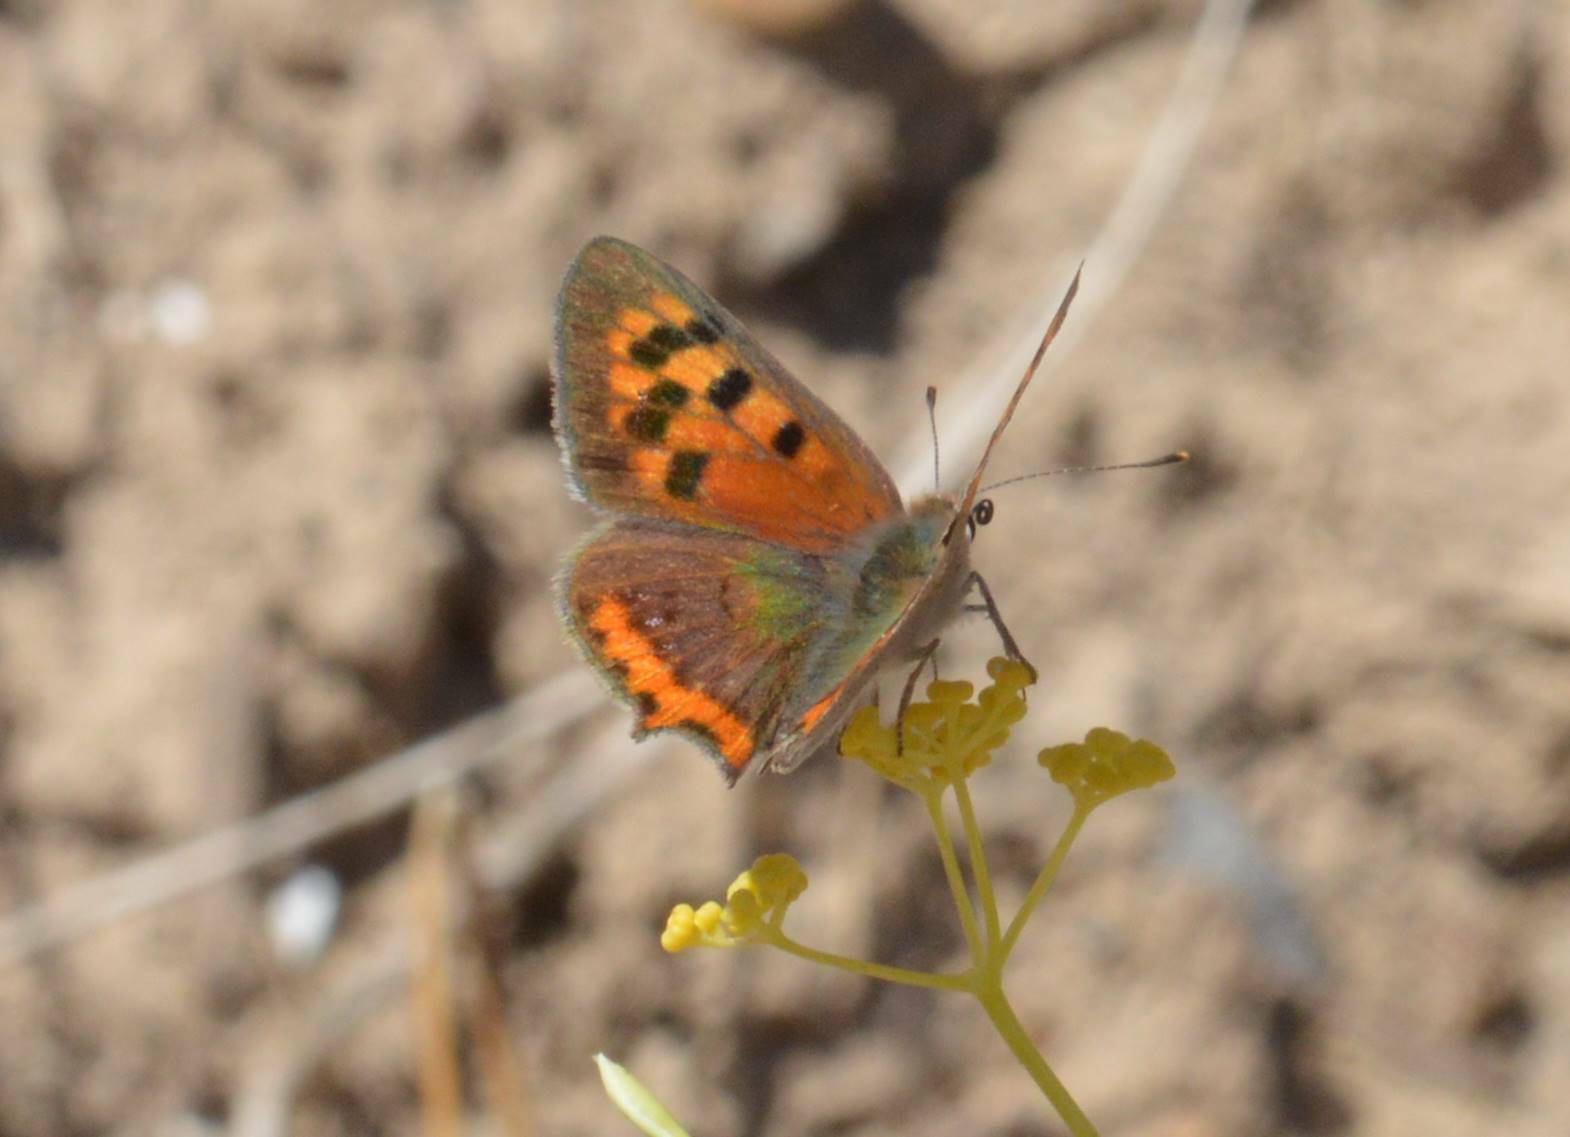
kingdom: Animalia
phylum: Arthropoda
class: Insecta
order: Lepidoptera
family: Lycaenidae
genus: Lycaena
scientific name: Lycaena phlaeas
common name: Small copper
